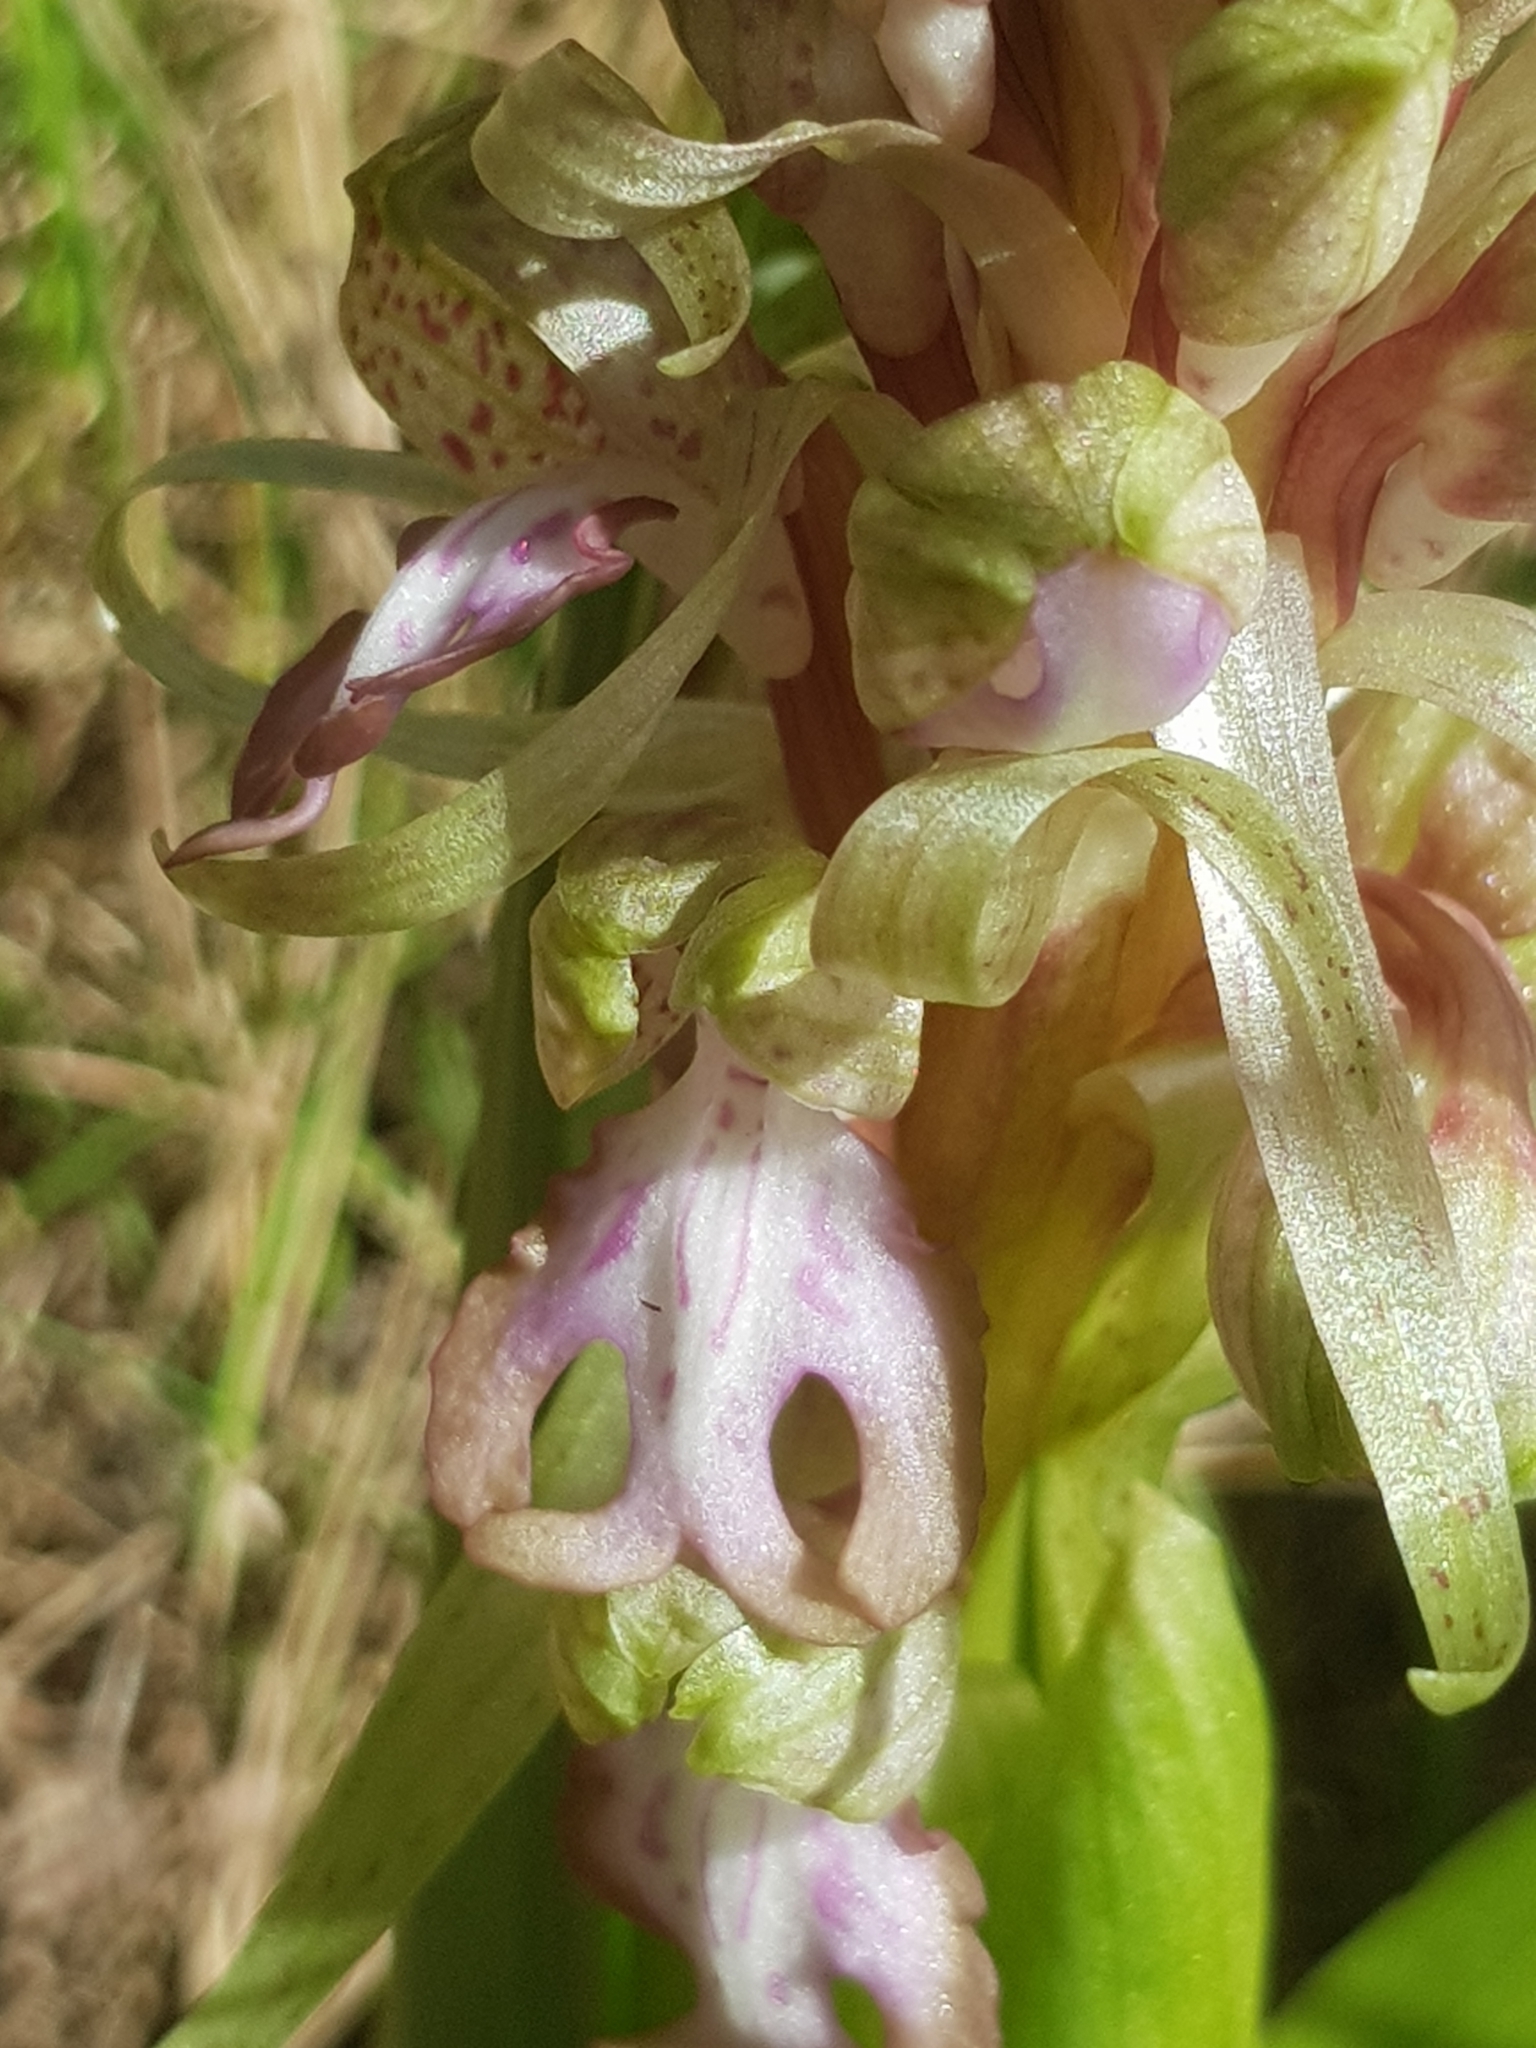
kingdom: Plantae
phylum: Tracheophyta
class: Liliopsida
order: Asparagales
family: Orchidaceae
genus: Himantoglossum
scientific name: Himantoglossum robertianum
